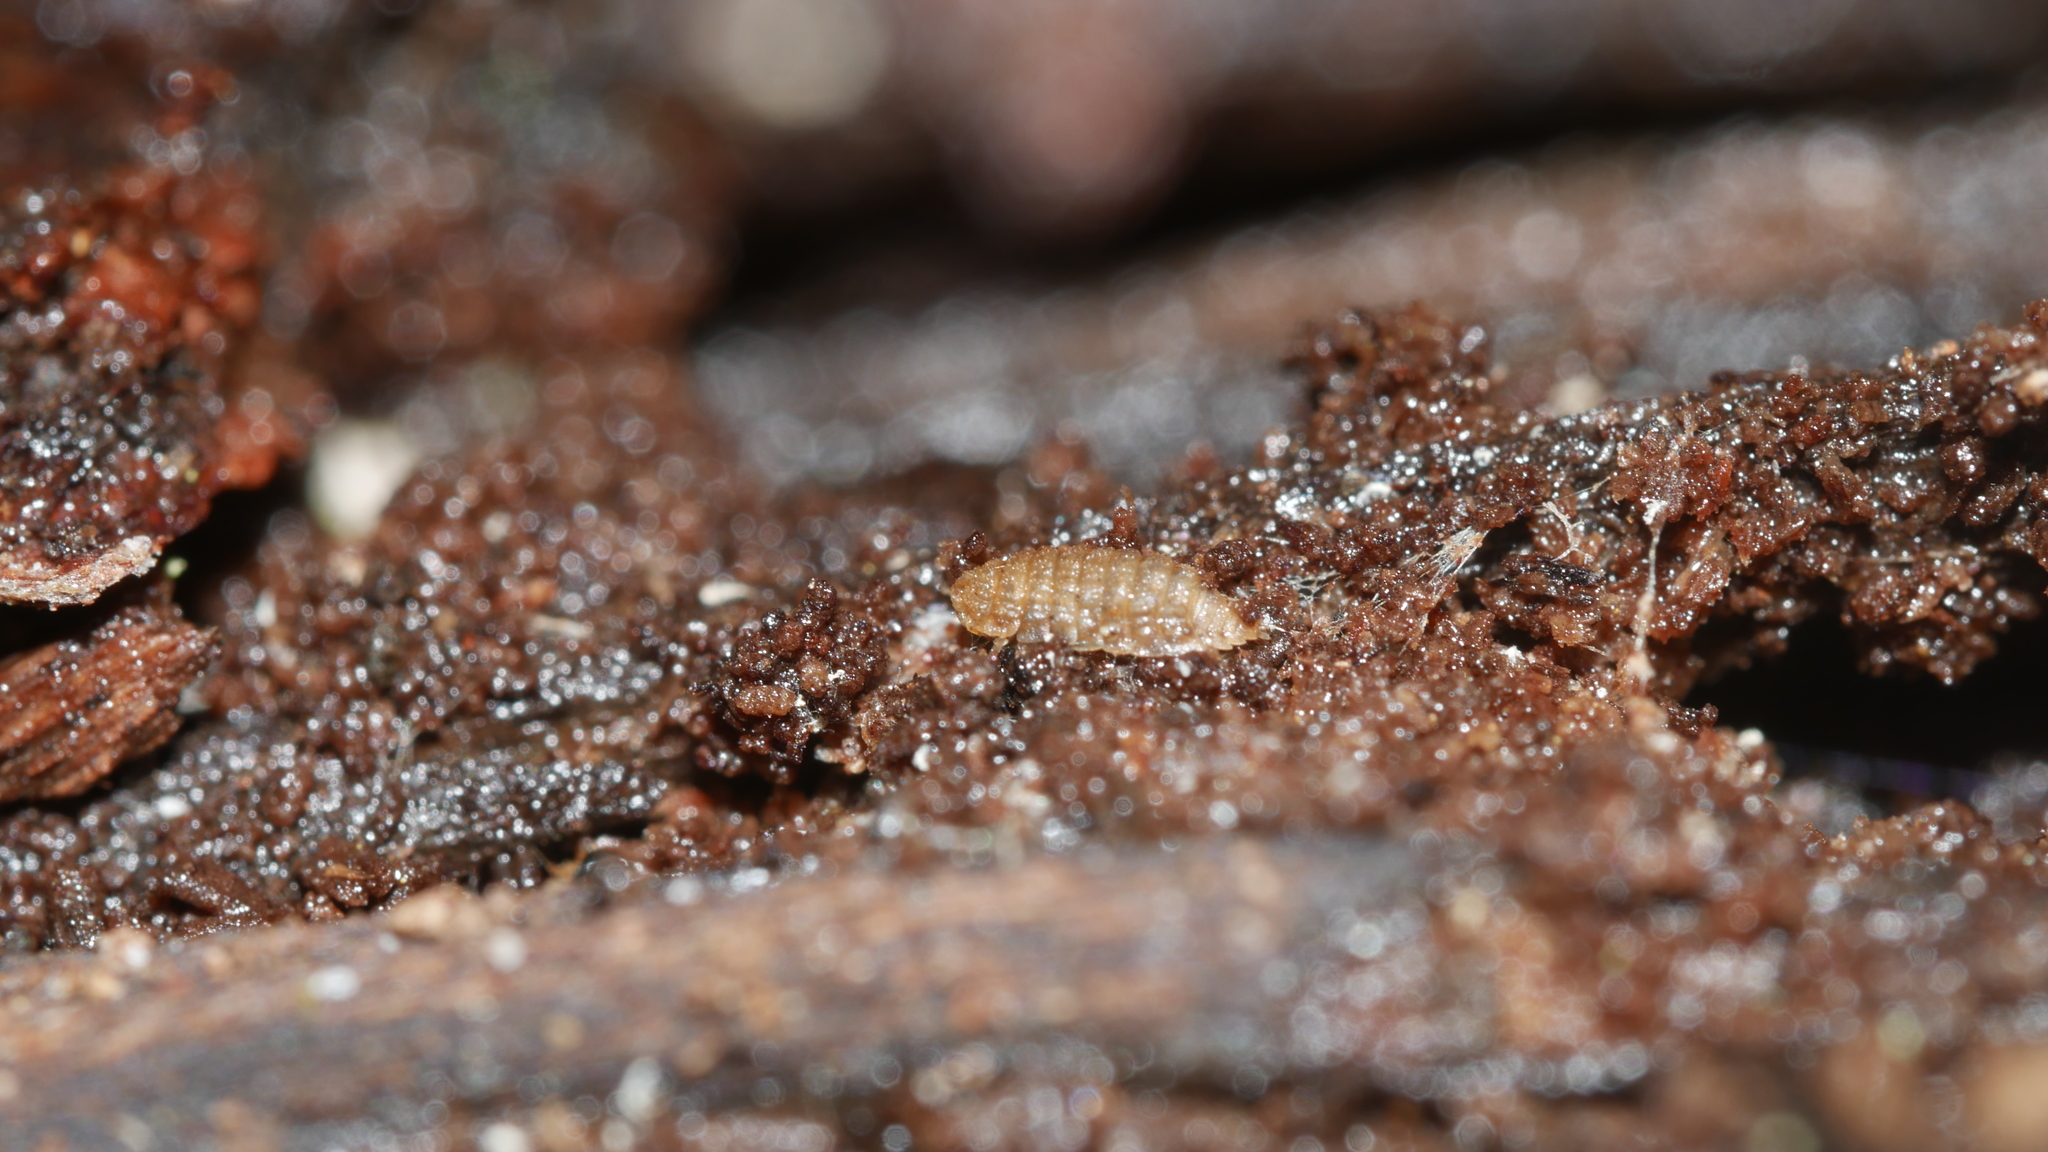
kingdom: Animalia
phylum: Arthropoda
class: Malacostraca
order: Isopoda
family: Trichoniscidae
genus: Haplophthalmus
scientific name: Haplophthalmus danicus
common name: Pillbug
